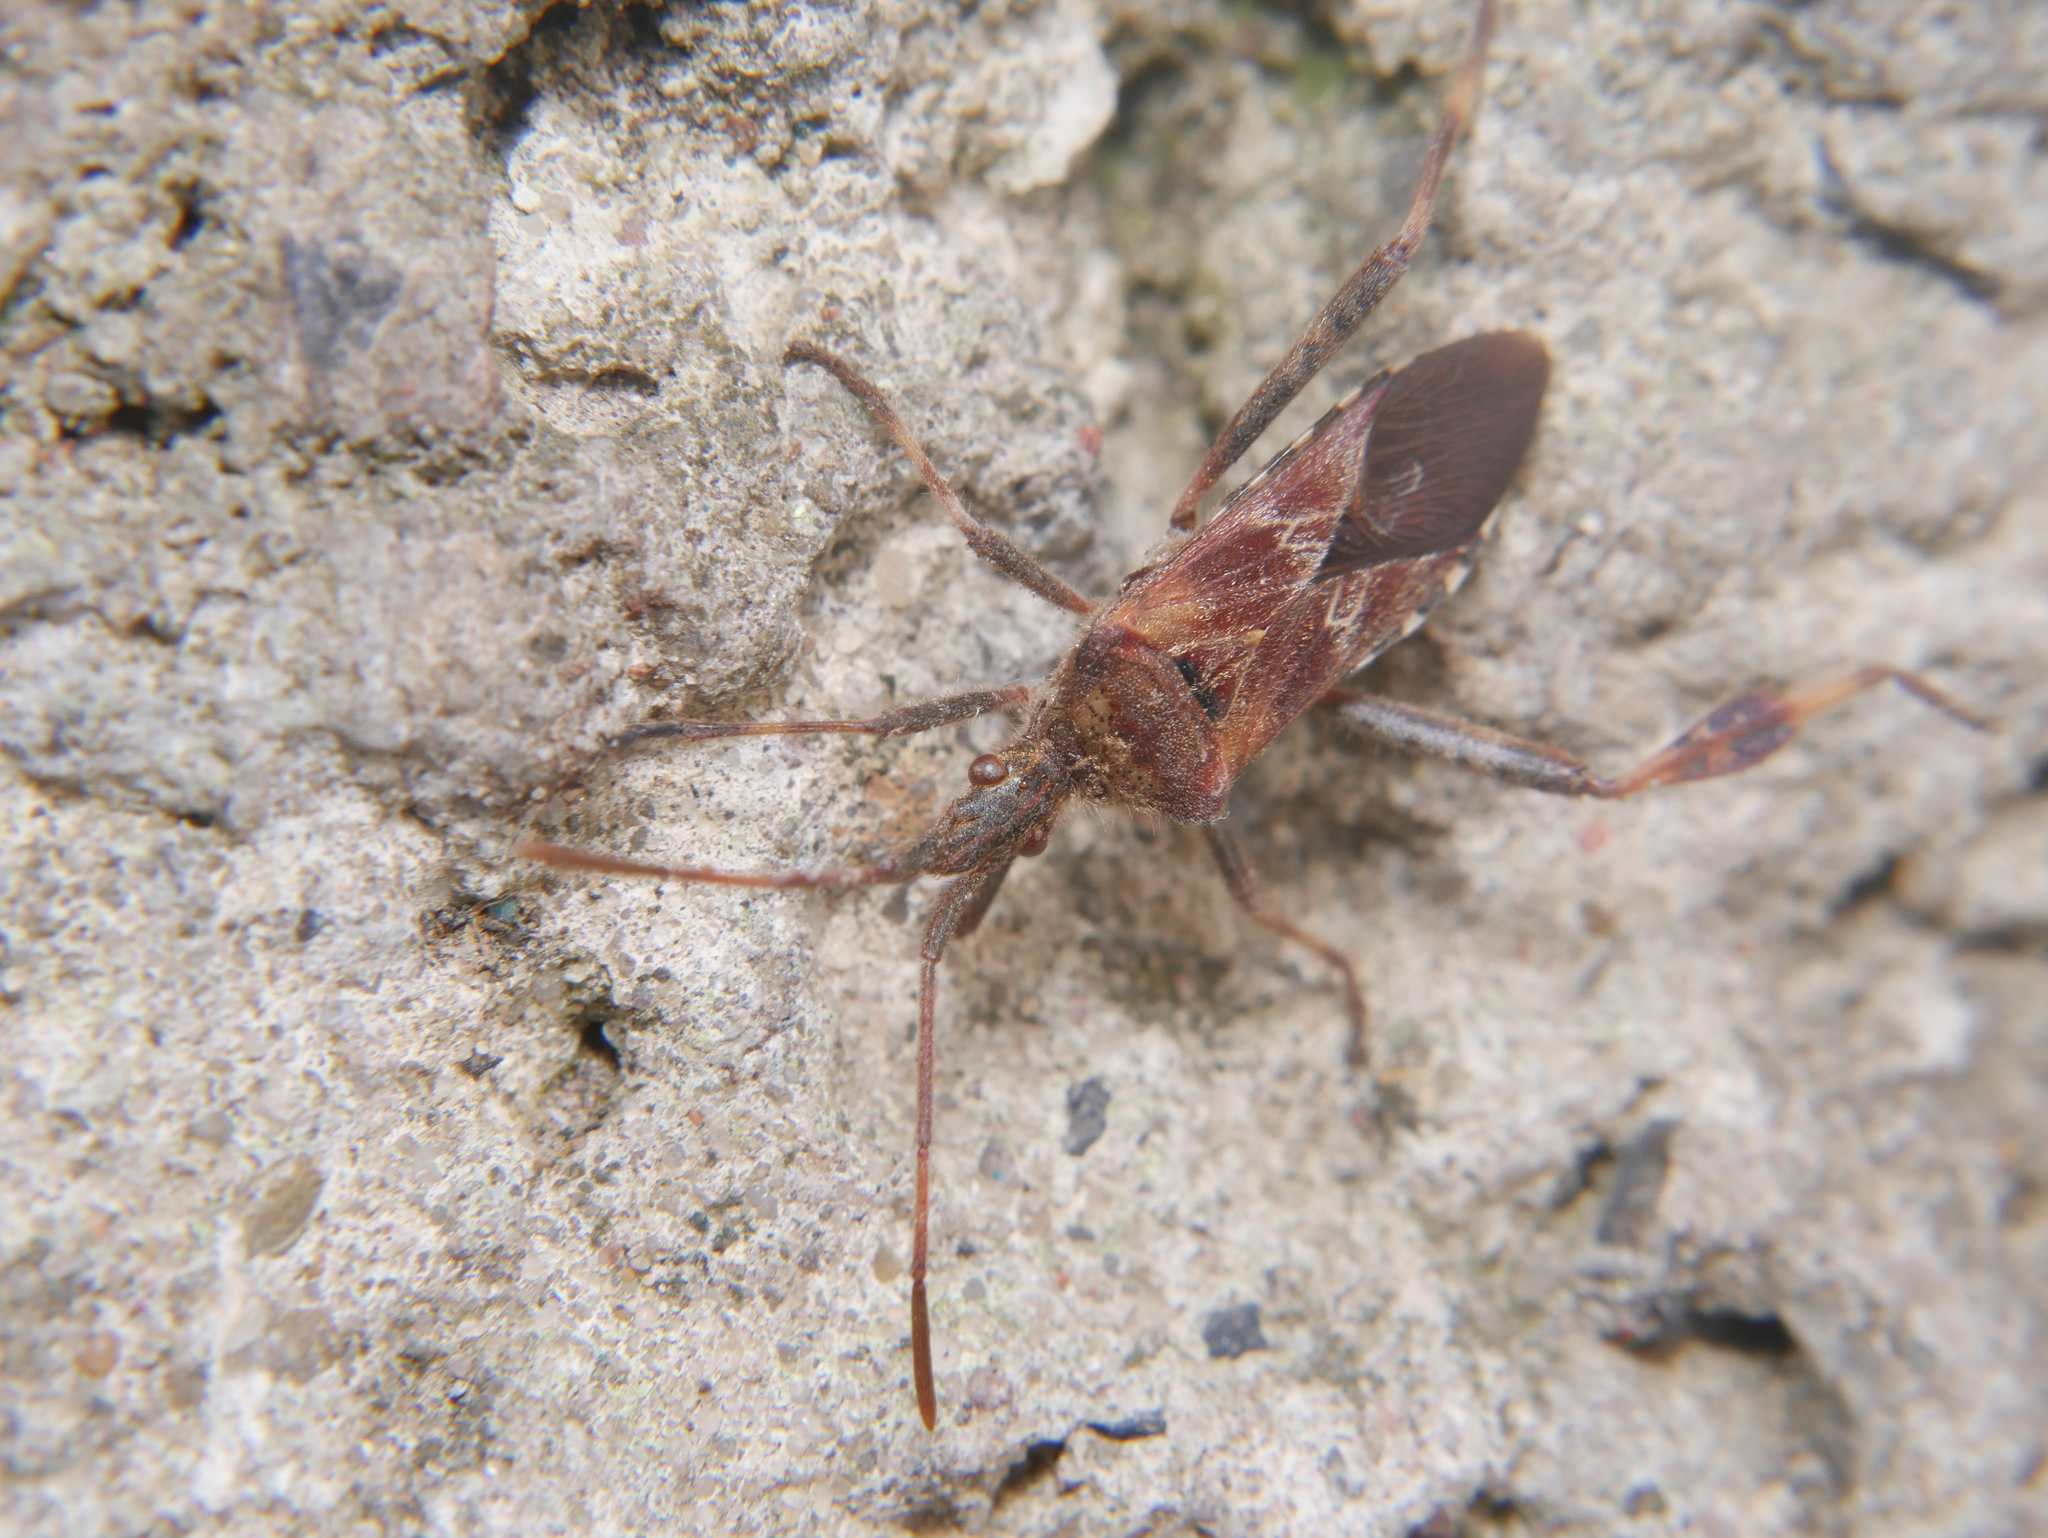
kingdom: Animalia
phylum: Arthropoda
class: Insecta
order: Hemiptera
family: Coreidae
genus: Leptoglossus
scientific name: Leptoglossus occidentalis
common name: Western conifer-seed bug
